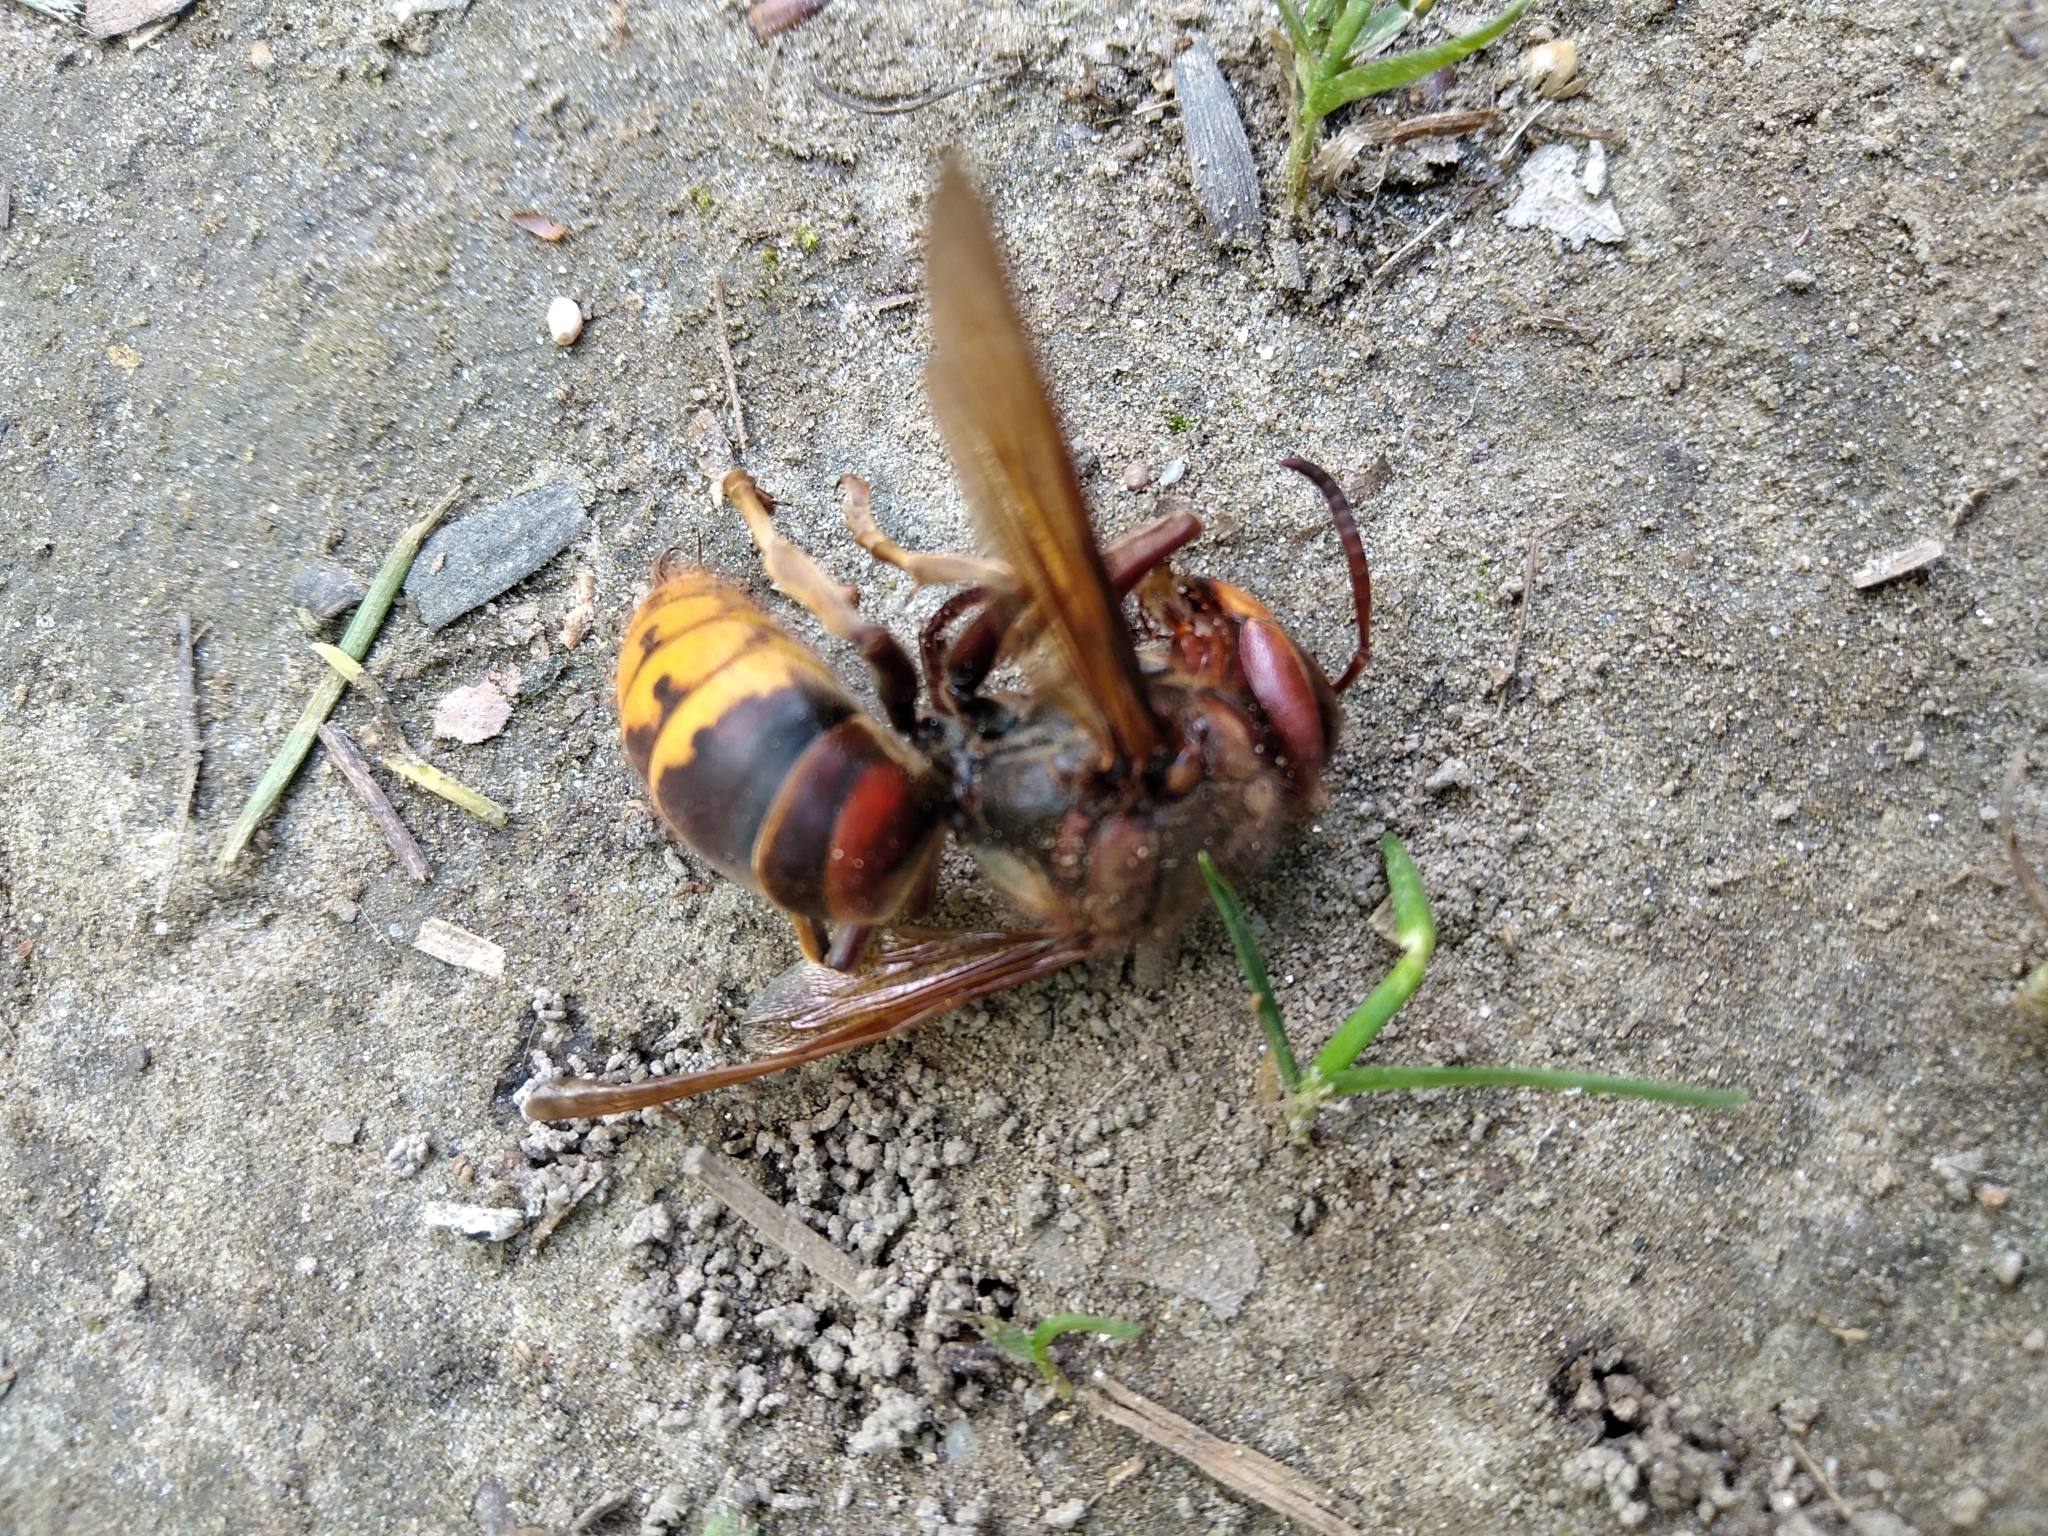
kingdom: Animalia
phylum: Arthropoda
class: Insecta
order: Hymenoptera
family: Vespidae
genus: Vespa
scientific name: Vespa crabro
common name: Hornet
